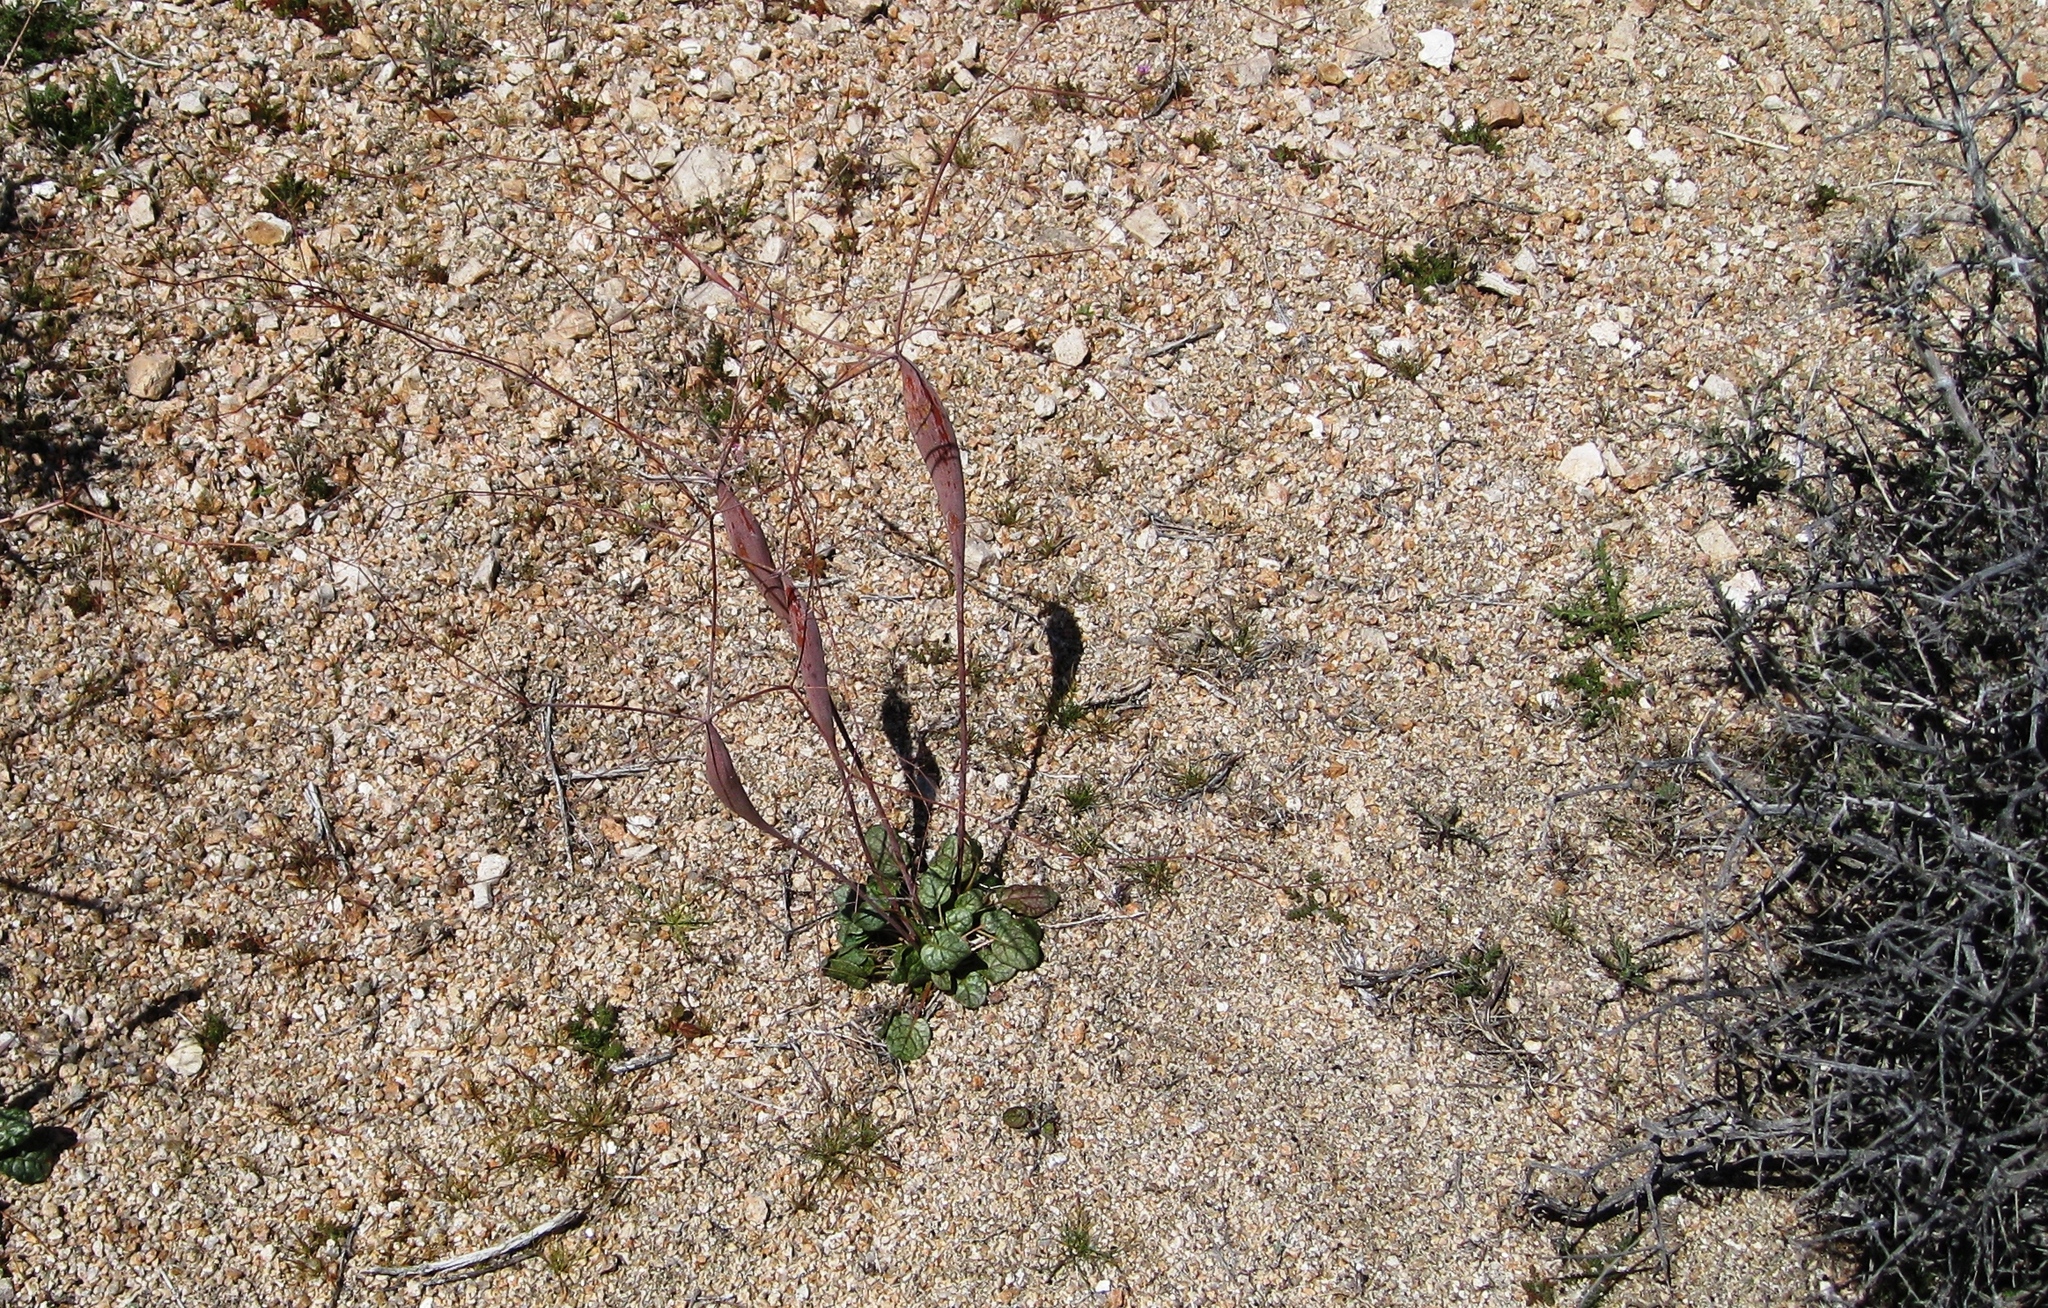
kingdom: Plantae
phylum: Tracheophyta
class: Magnoliopsida
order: Caryophyllales
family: Polygonaceae
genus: Eriogonum
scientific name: Eriogonum inflatum
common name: Desert trumpet
